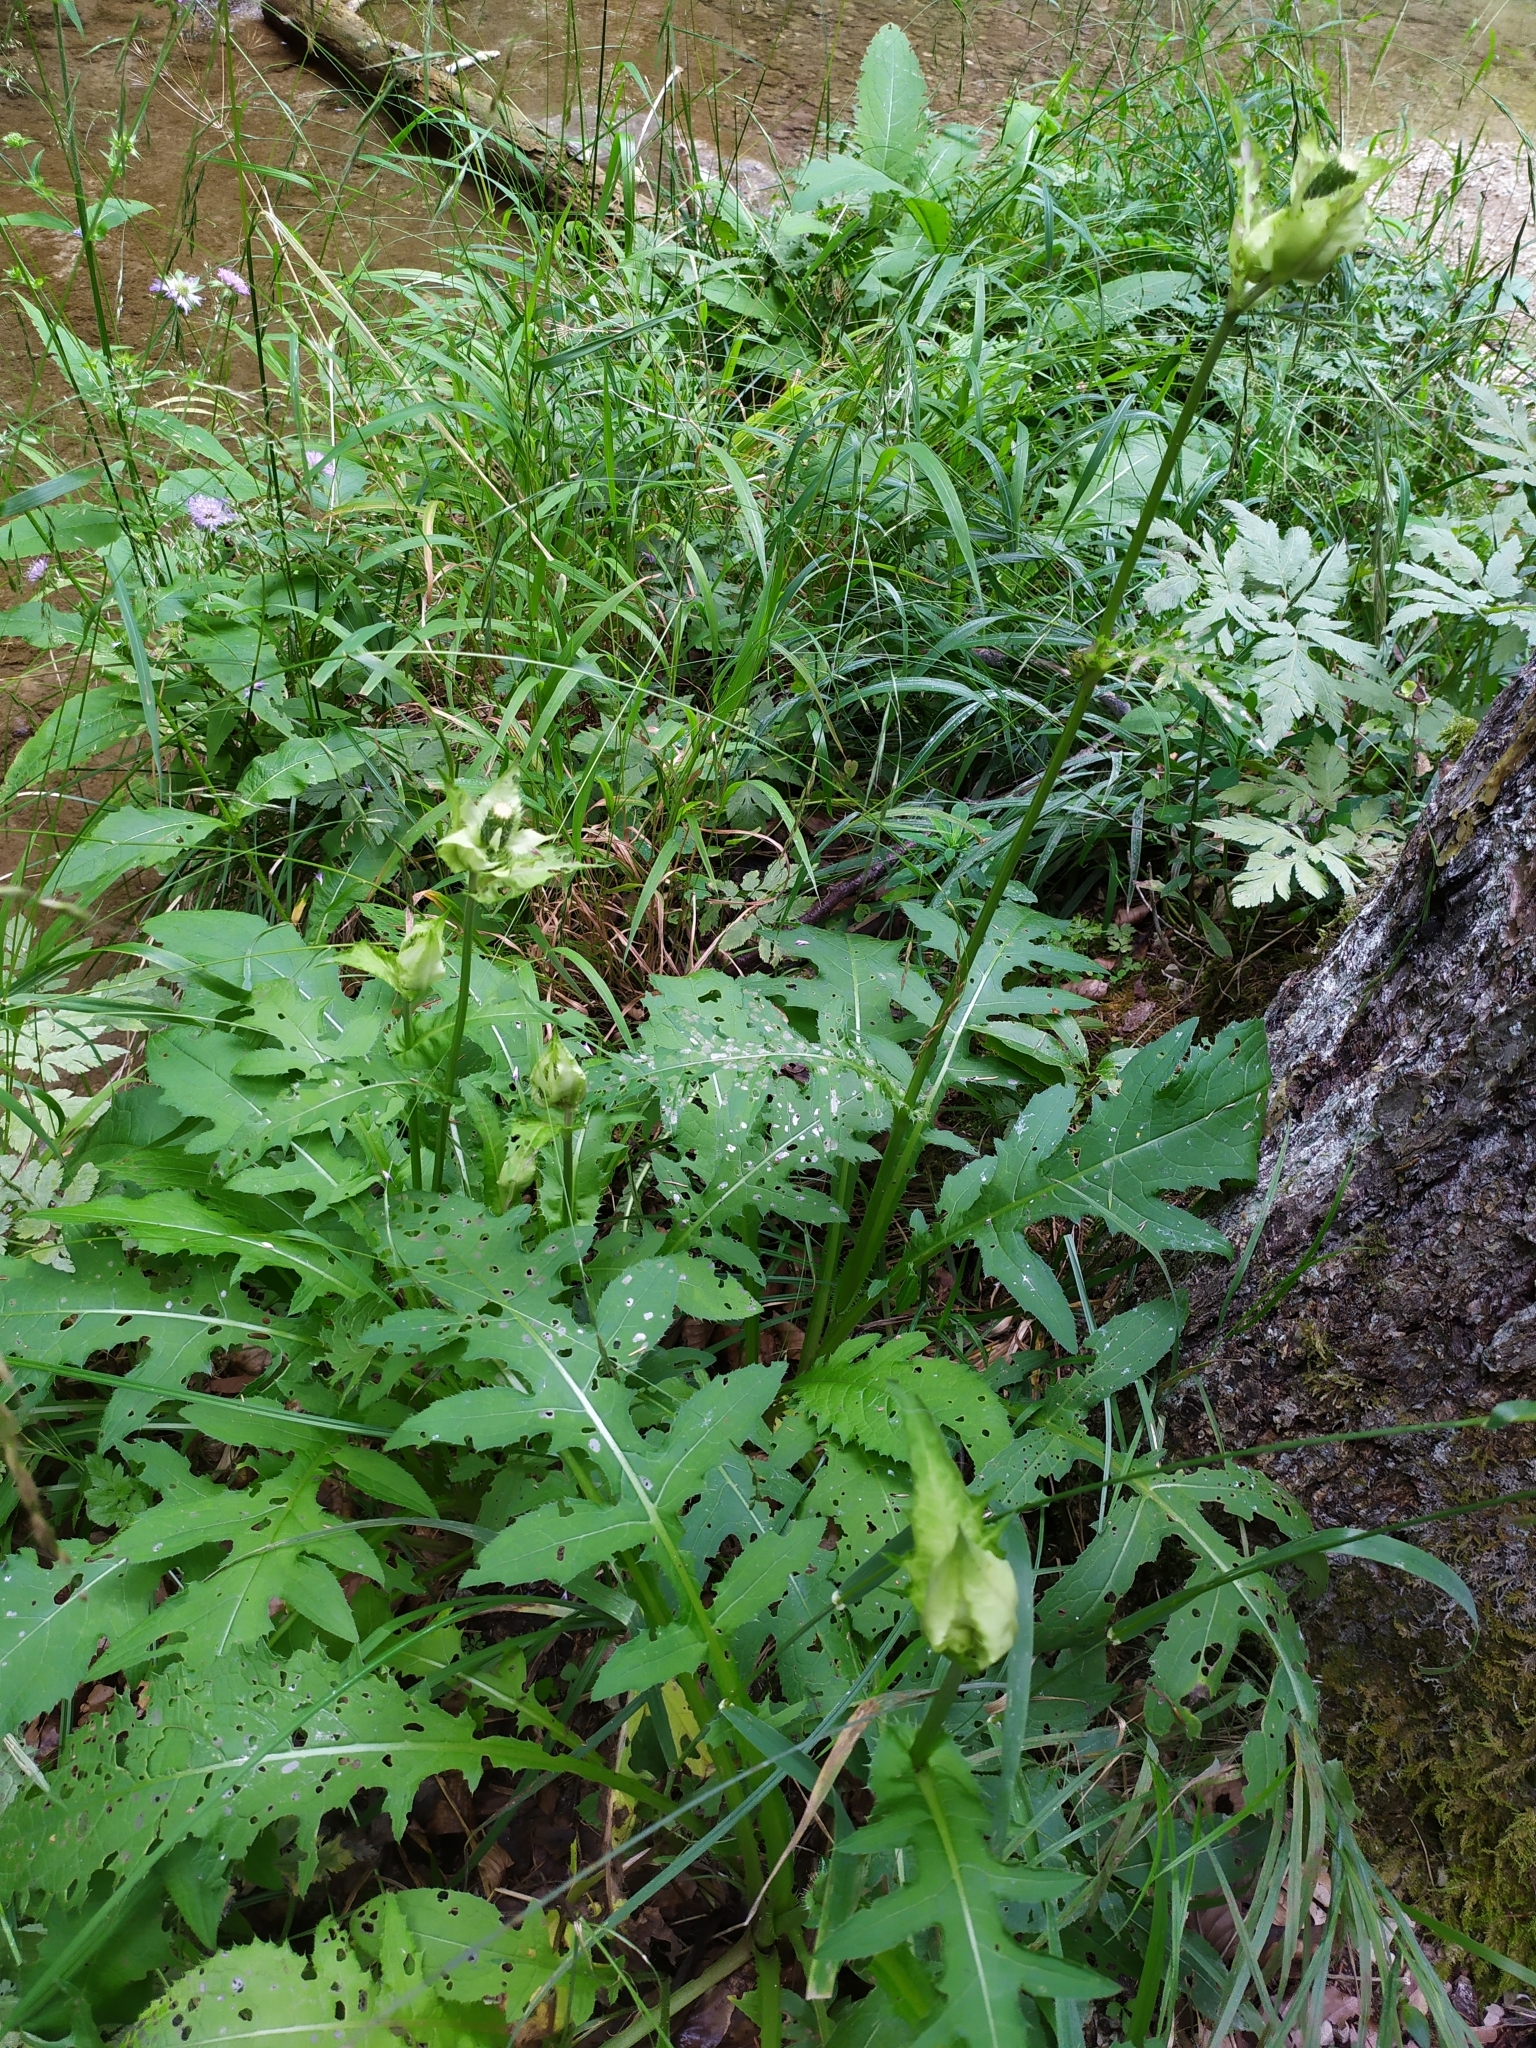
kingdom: Plantae
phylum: Tracheophyta
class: Magnoliopsida
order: Asterales
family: Asteraceae
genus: Cirsium
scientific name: Cirsium oleraceum
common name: Cabbage thistle
